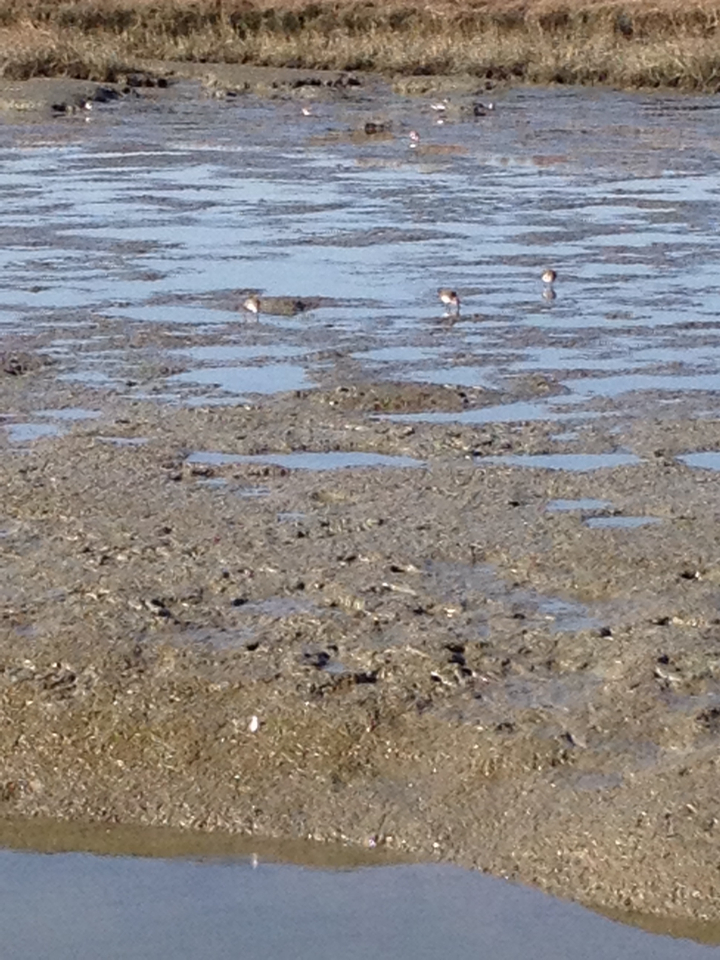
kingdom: Animalia
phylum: Chordata
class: Aves
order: Charadriiformes
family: Scolopacidae
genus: Calidris
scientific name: Calidris alpina
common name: Dunlin
